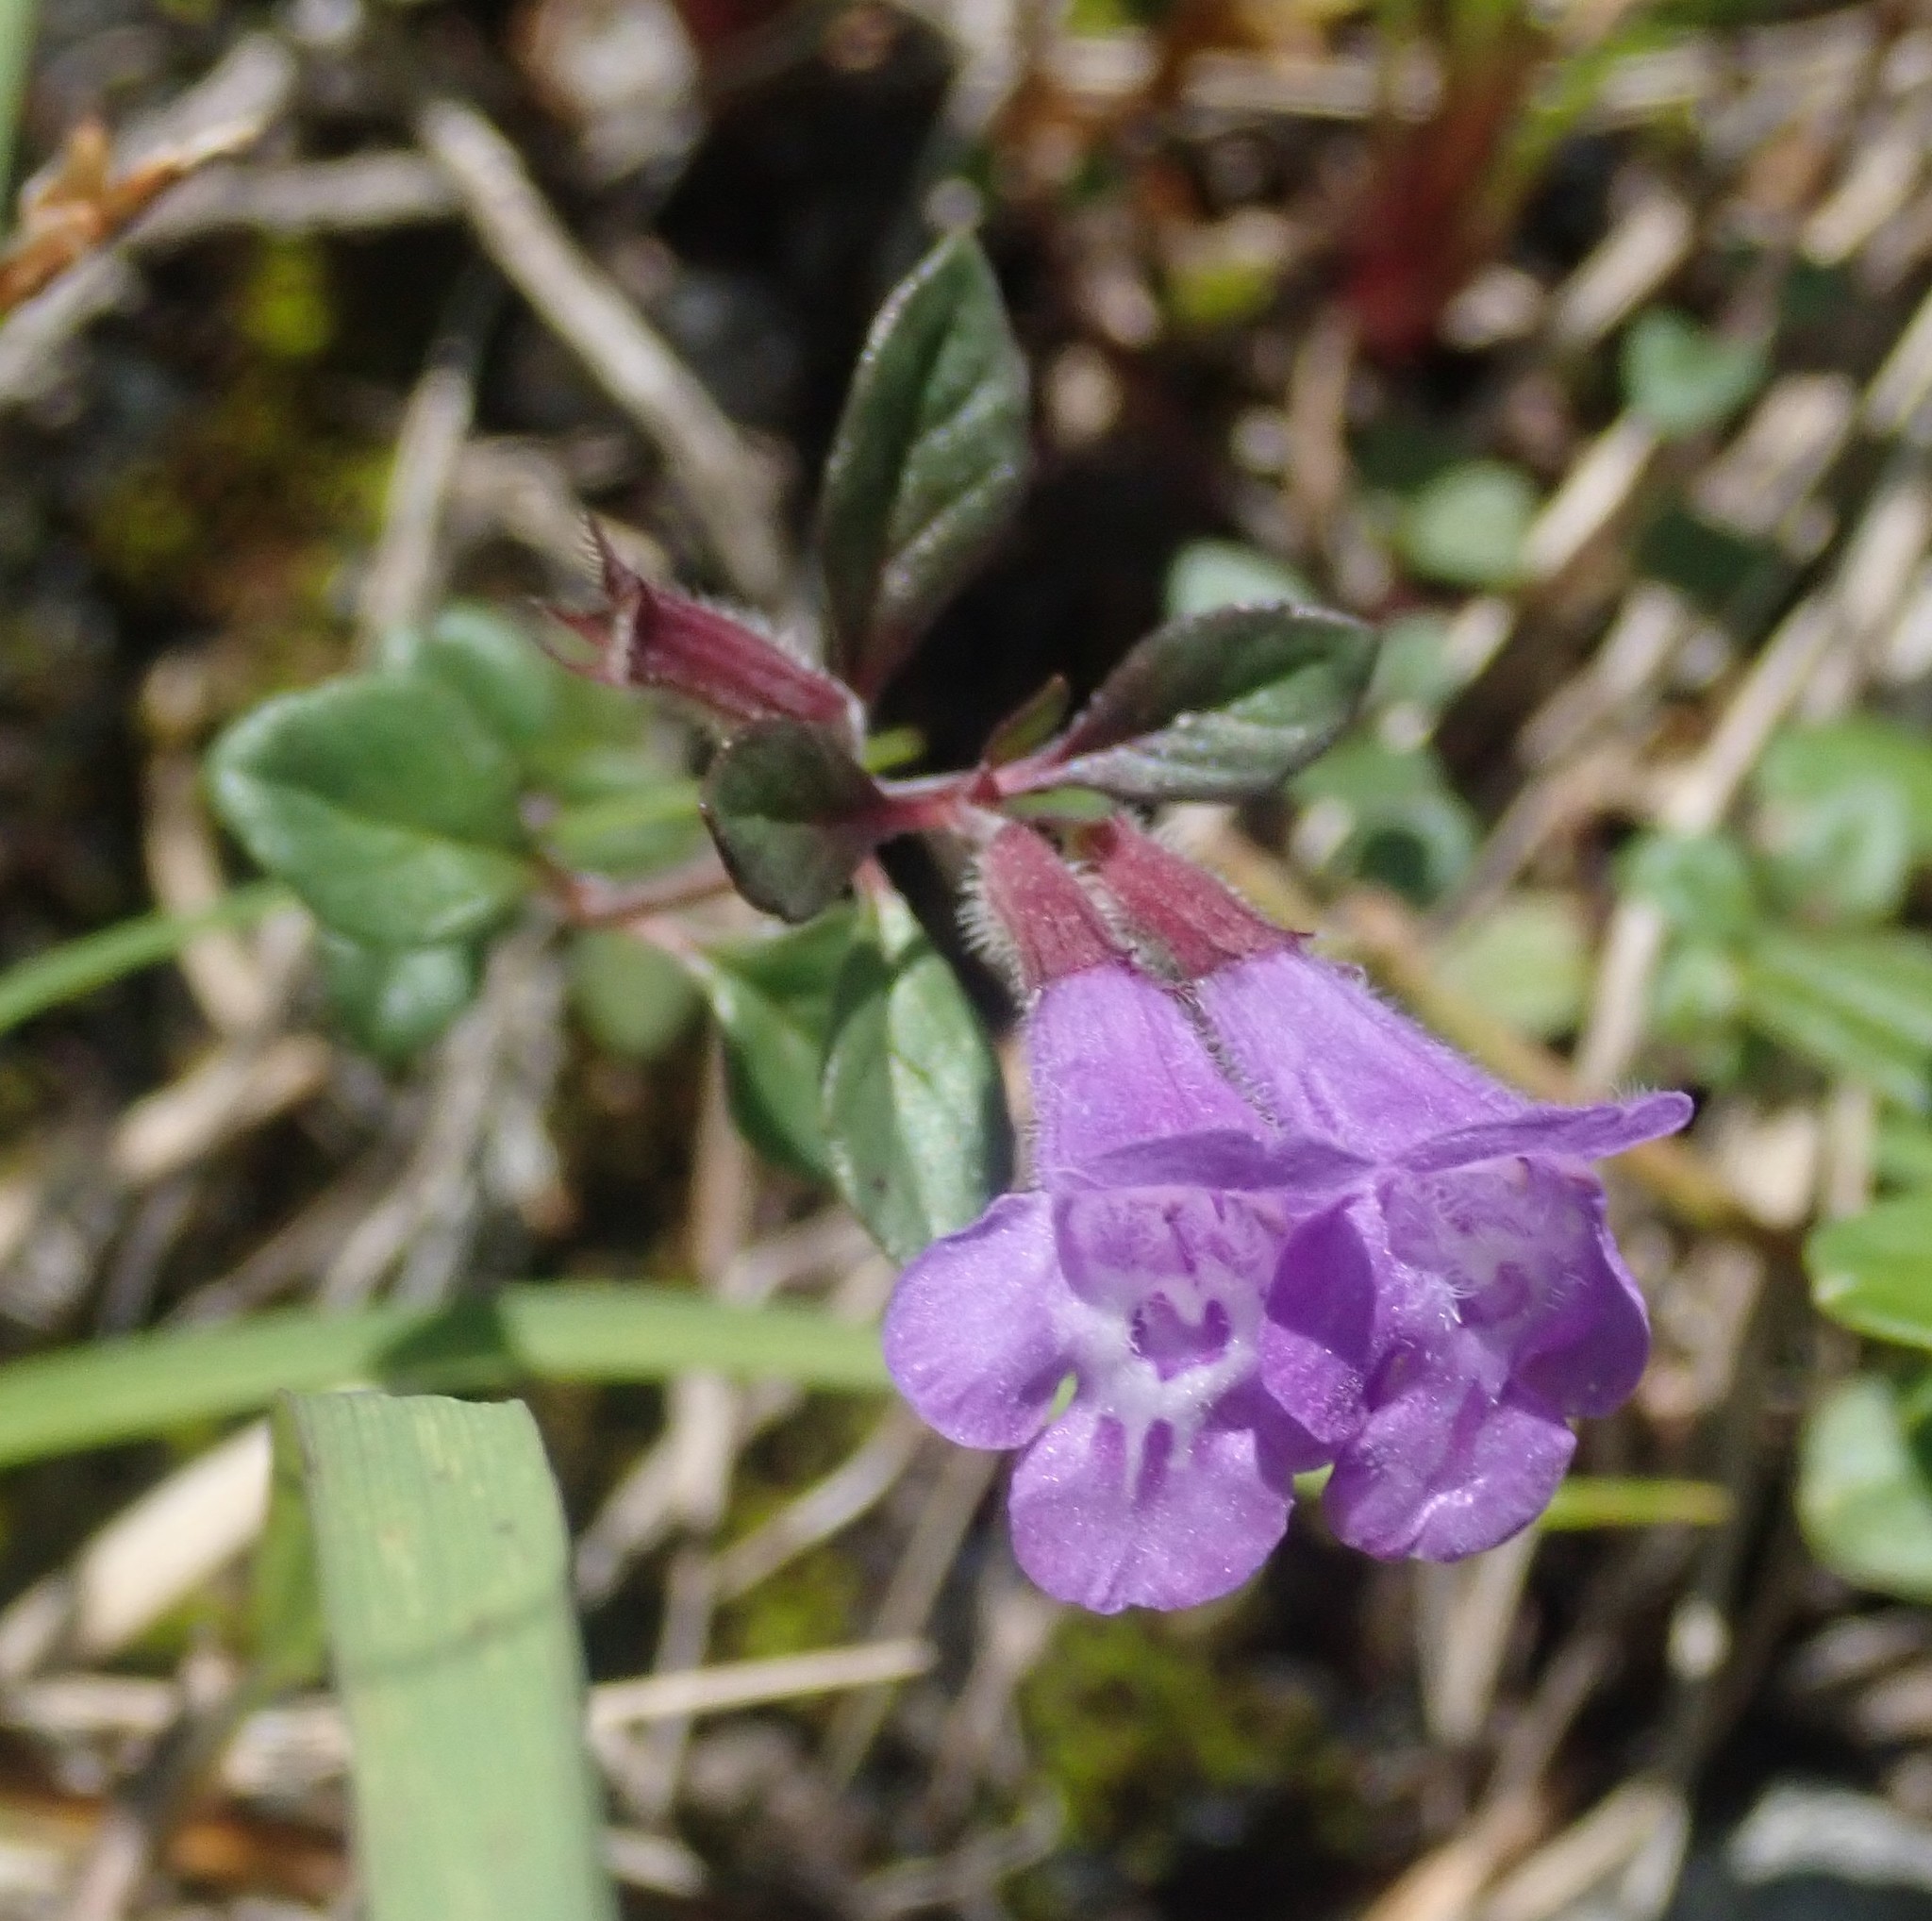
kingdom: Plantae
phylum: Tracheophyta
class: Magnoliopsida
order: Lamiales
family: Lamiaceae
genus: Clinopodium
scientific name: Clinopodium alpinum
